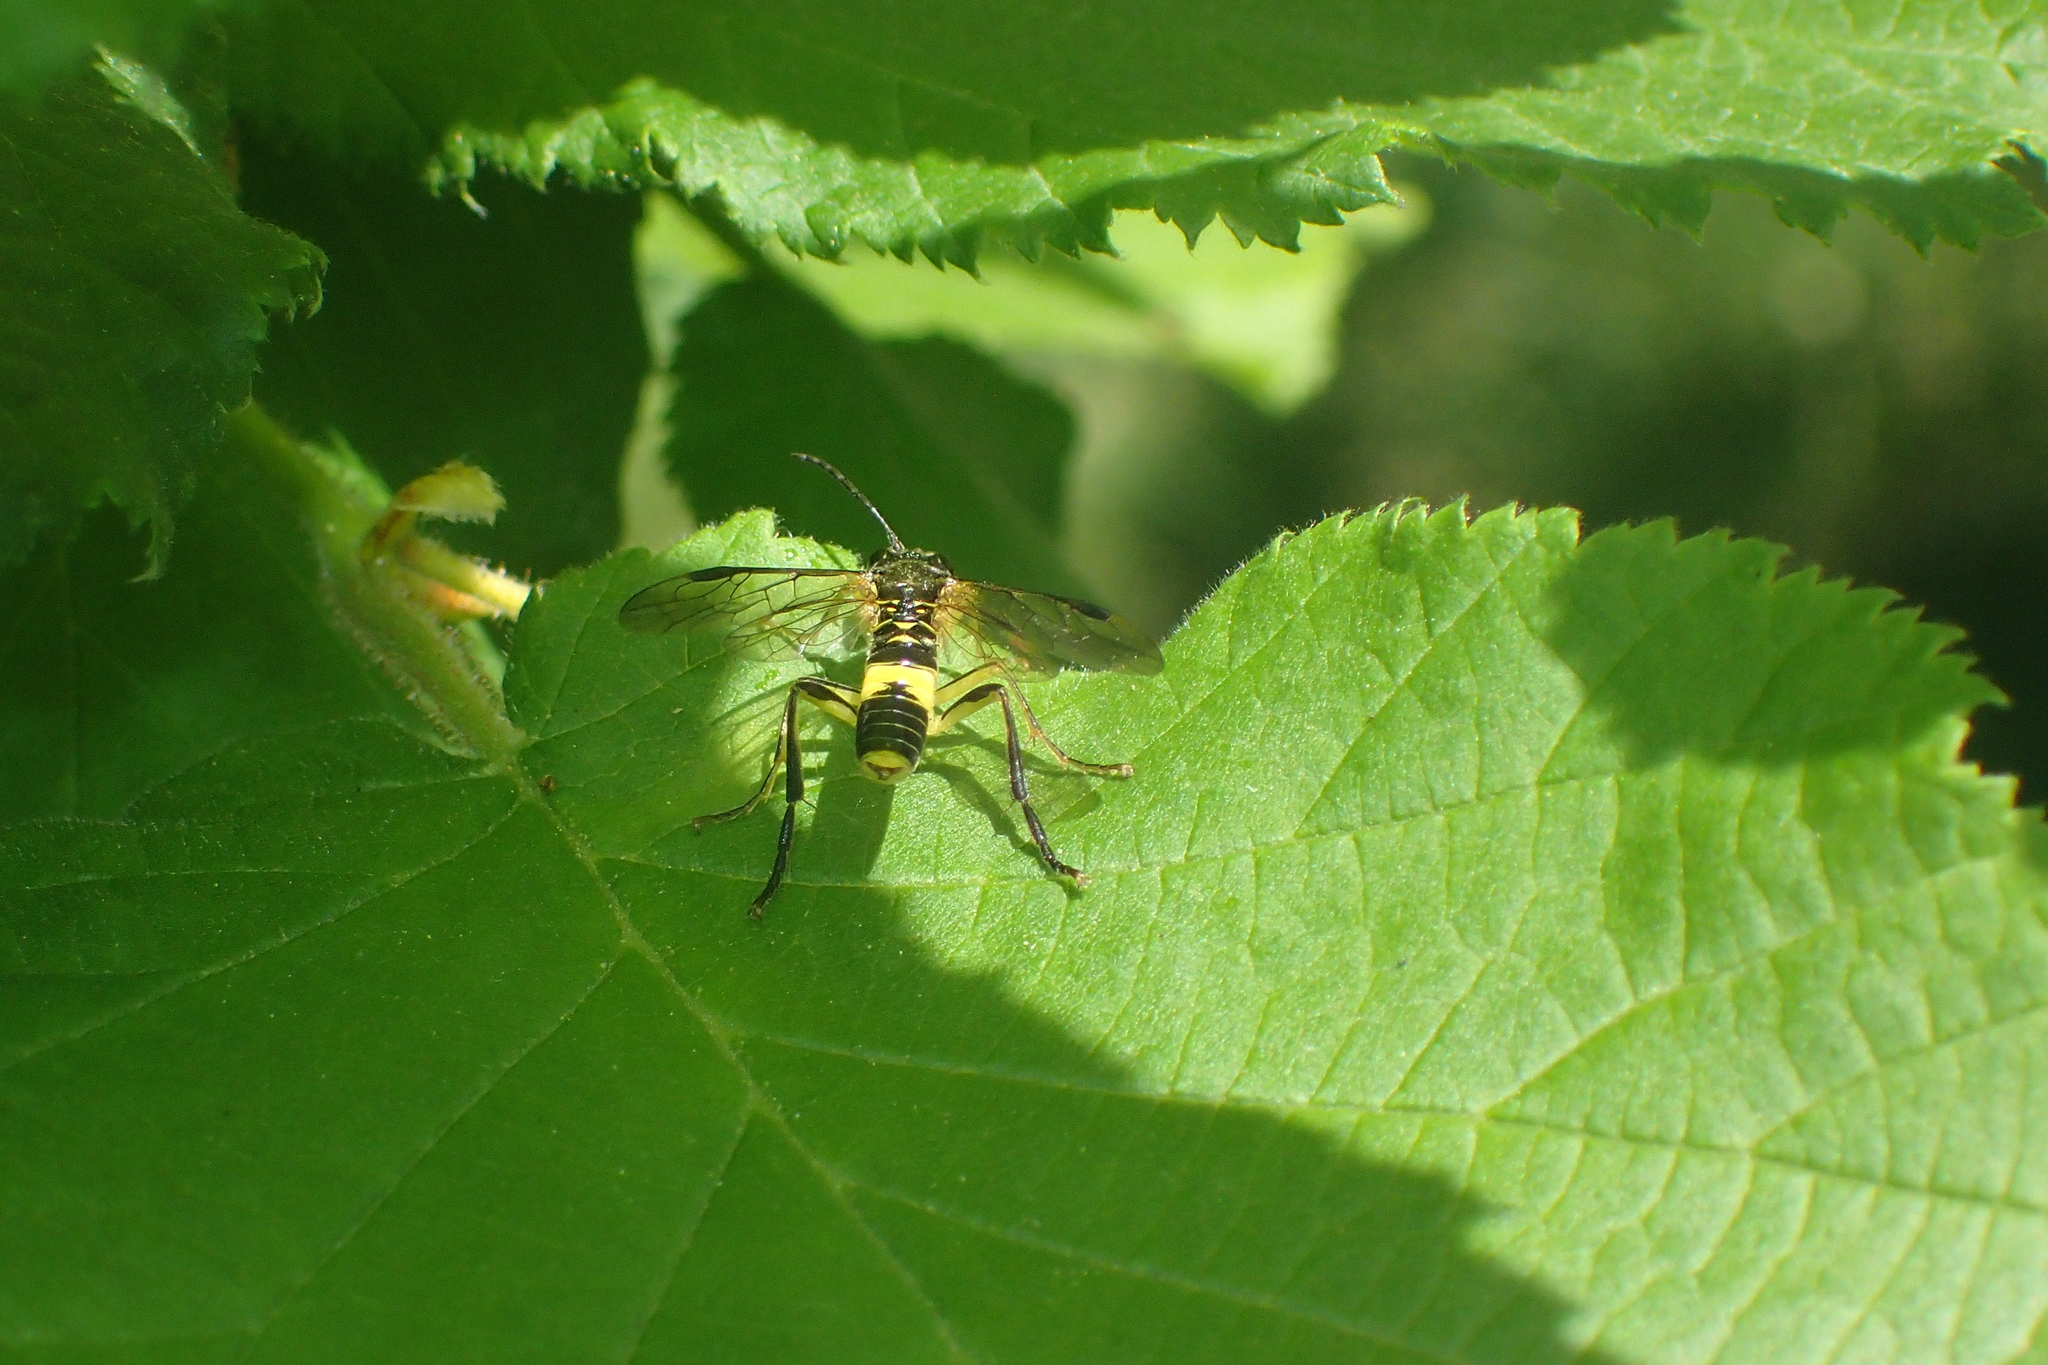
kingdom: Animalia
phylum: Arthropoda
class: Insecta
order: Hymenoptera
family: Tenthredinidae
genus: Tenthredo
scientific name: Tenthredo temula
